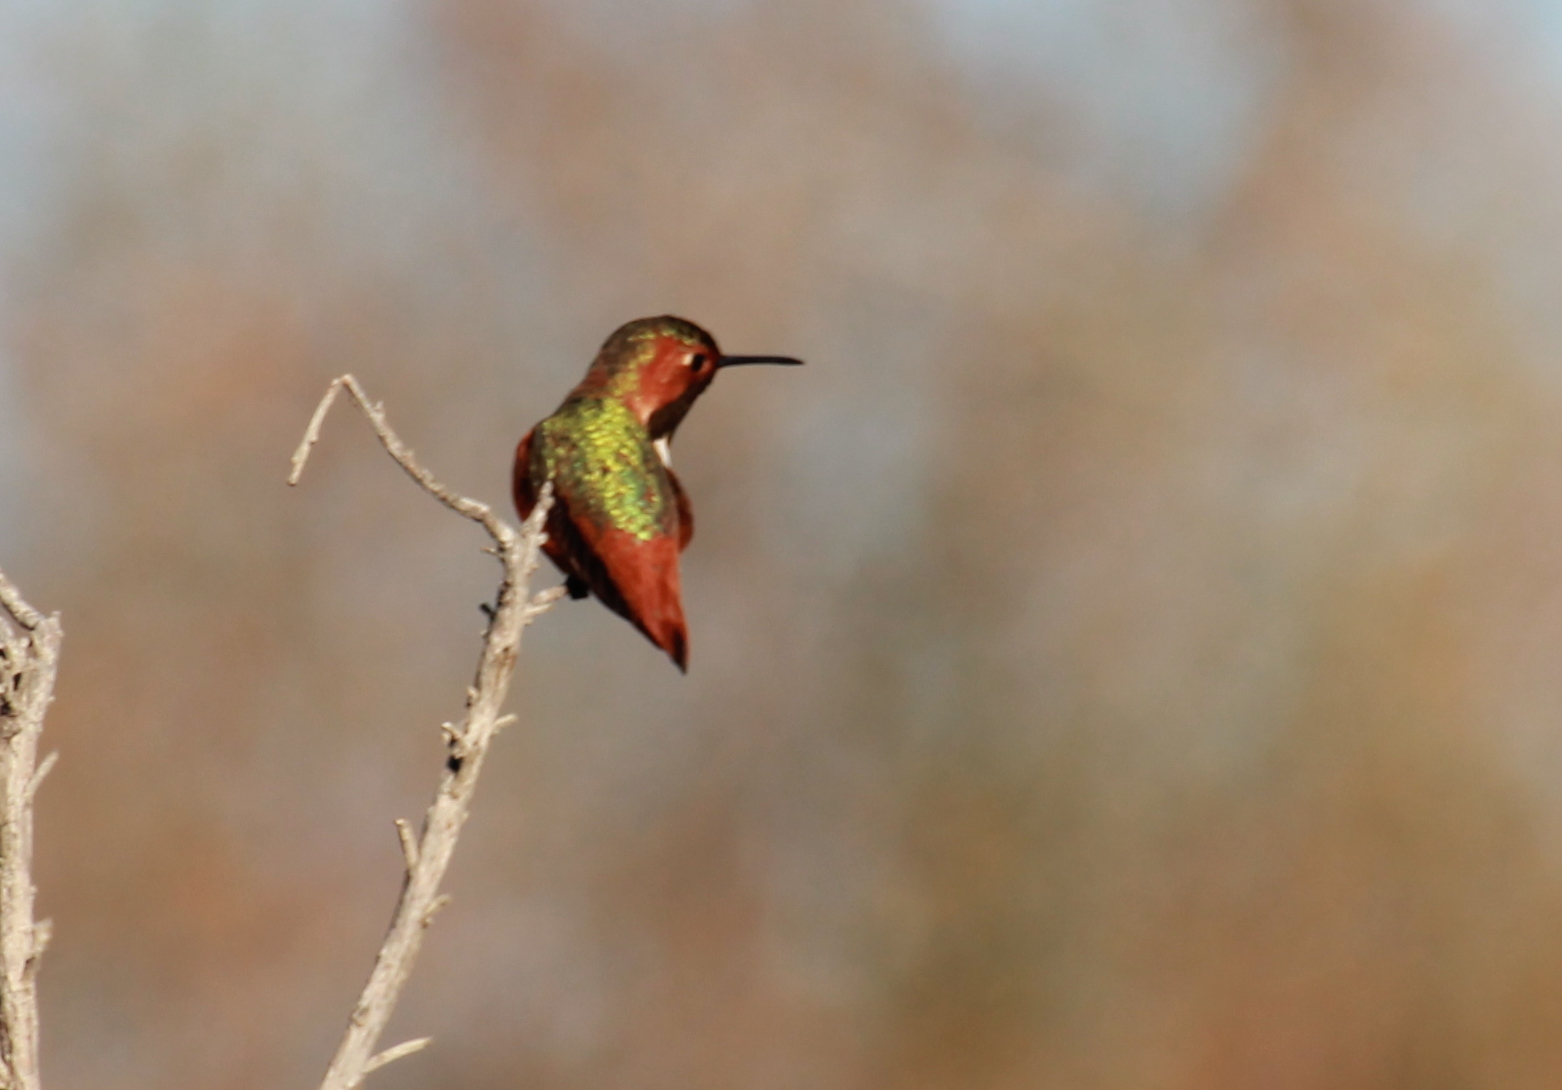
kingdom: Animalia
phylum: Chordata
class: Aves
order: Apodiformes
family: Trochilidae
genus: Selasphorus
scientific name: Selasphorus sasin
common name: Allen's hummingbird
